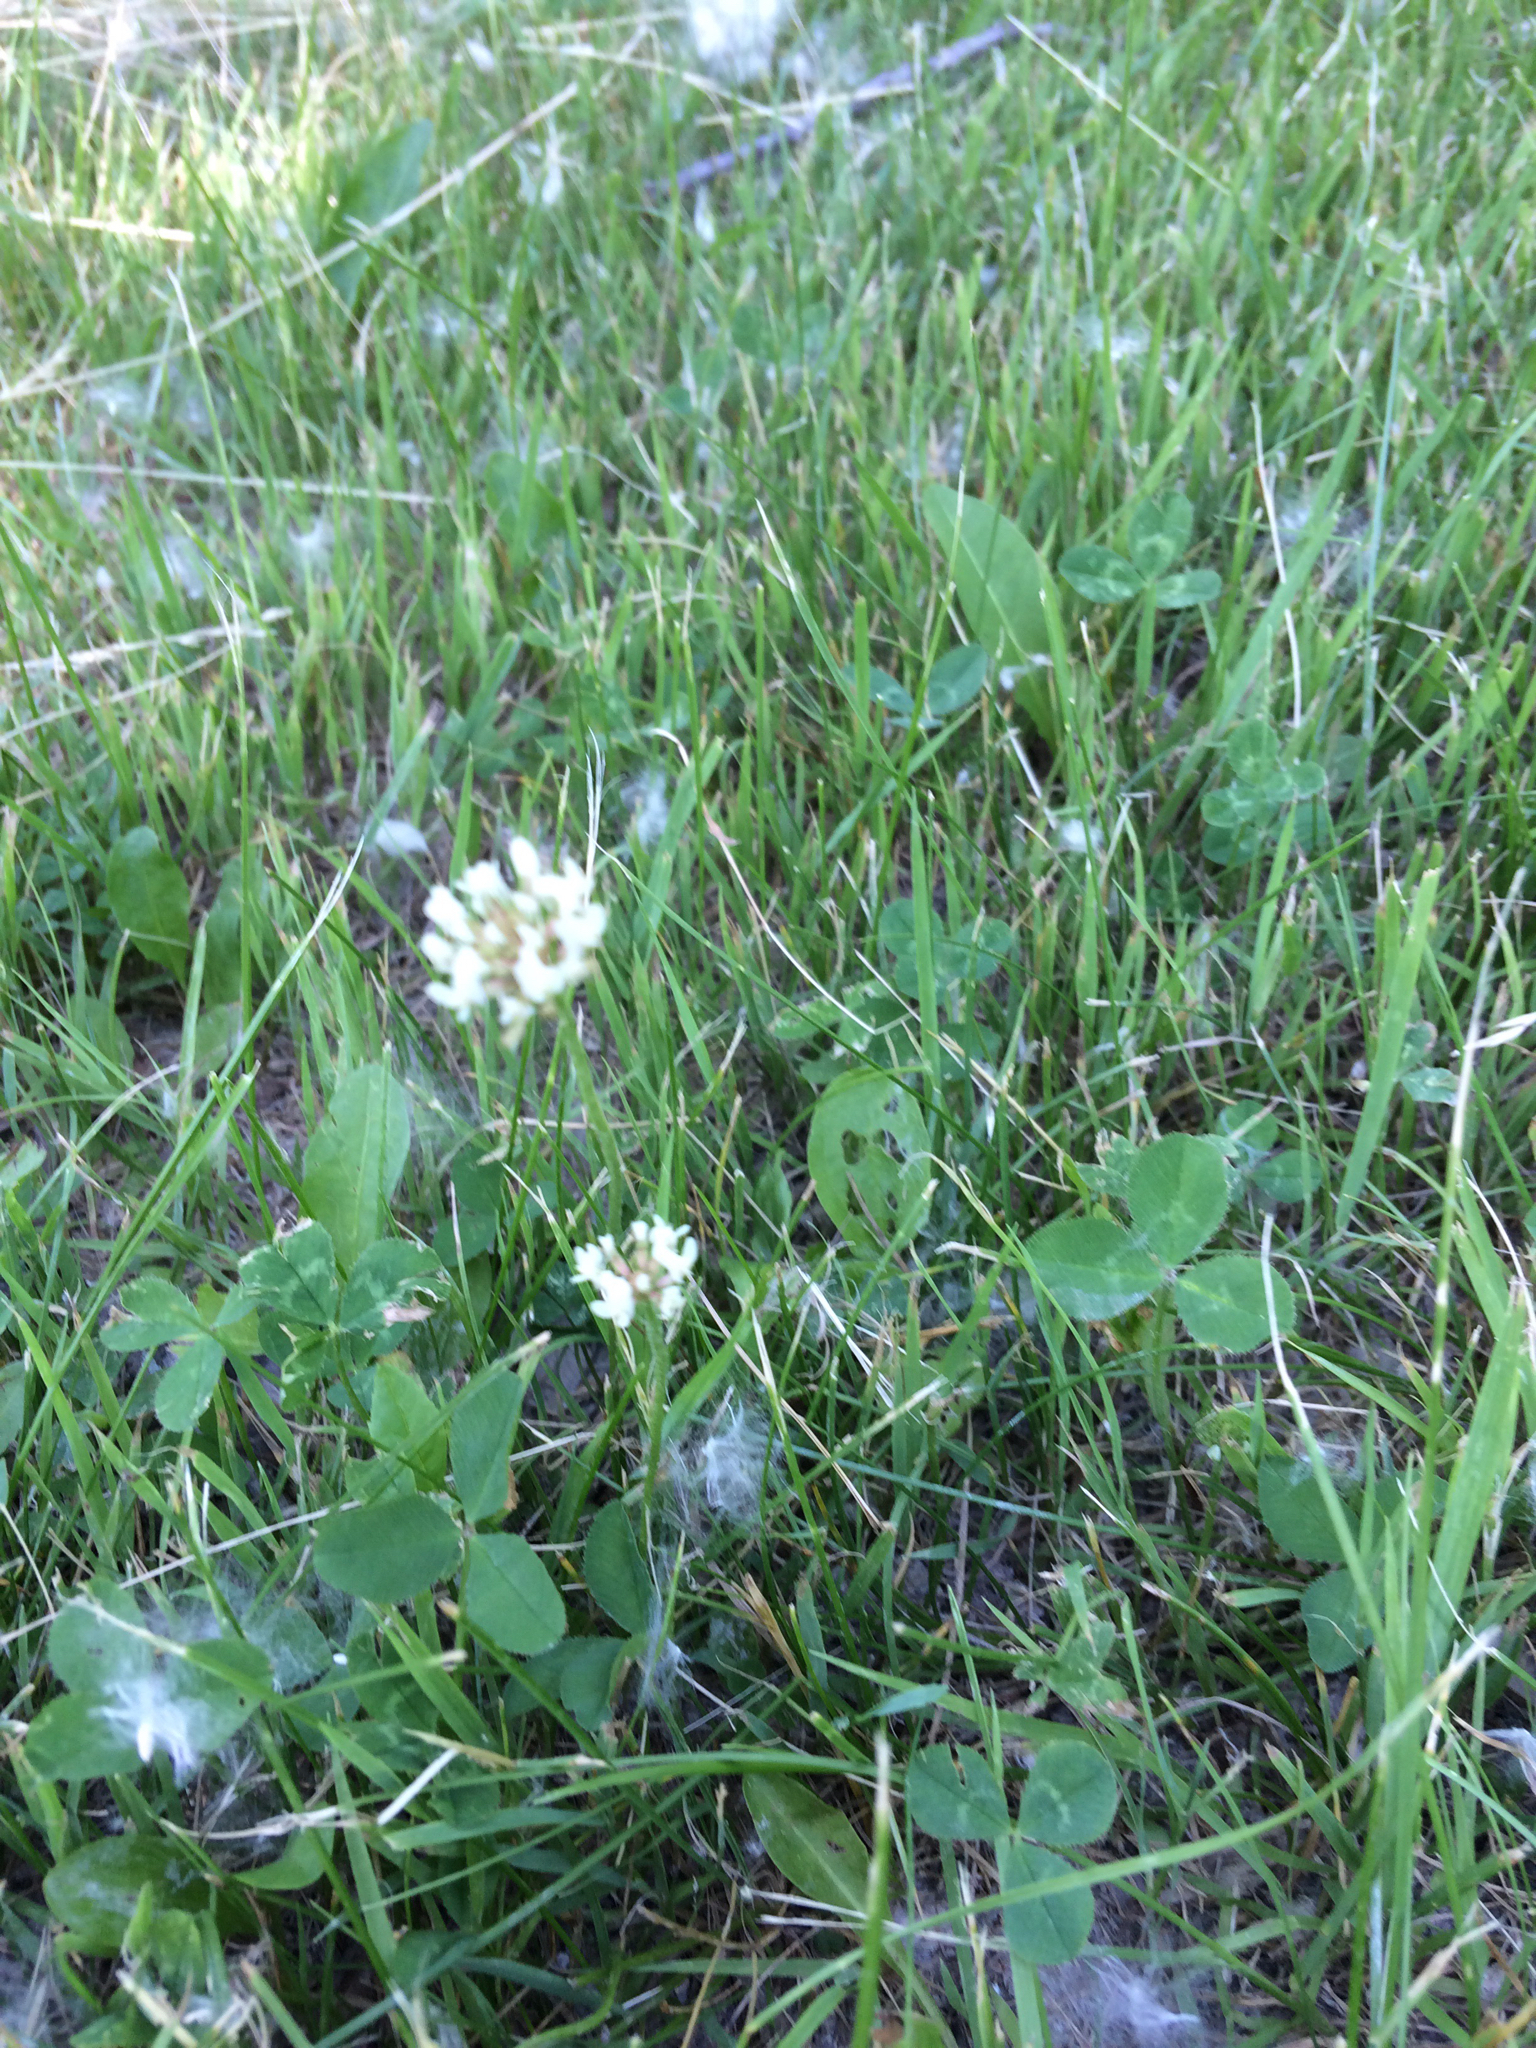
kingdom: Plantae
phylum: Tracheophyta
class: Magnoliopsida
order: Fabales
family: Fabaceae
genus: Trifolium
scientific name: Trifolium repens
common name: White clover
